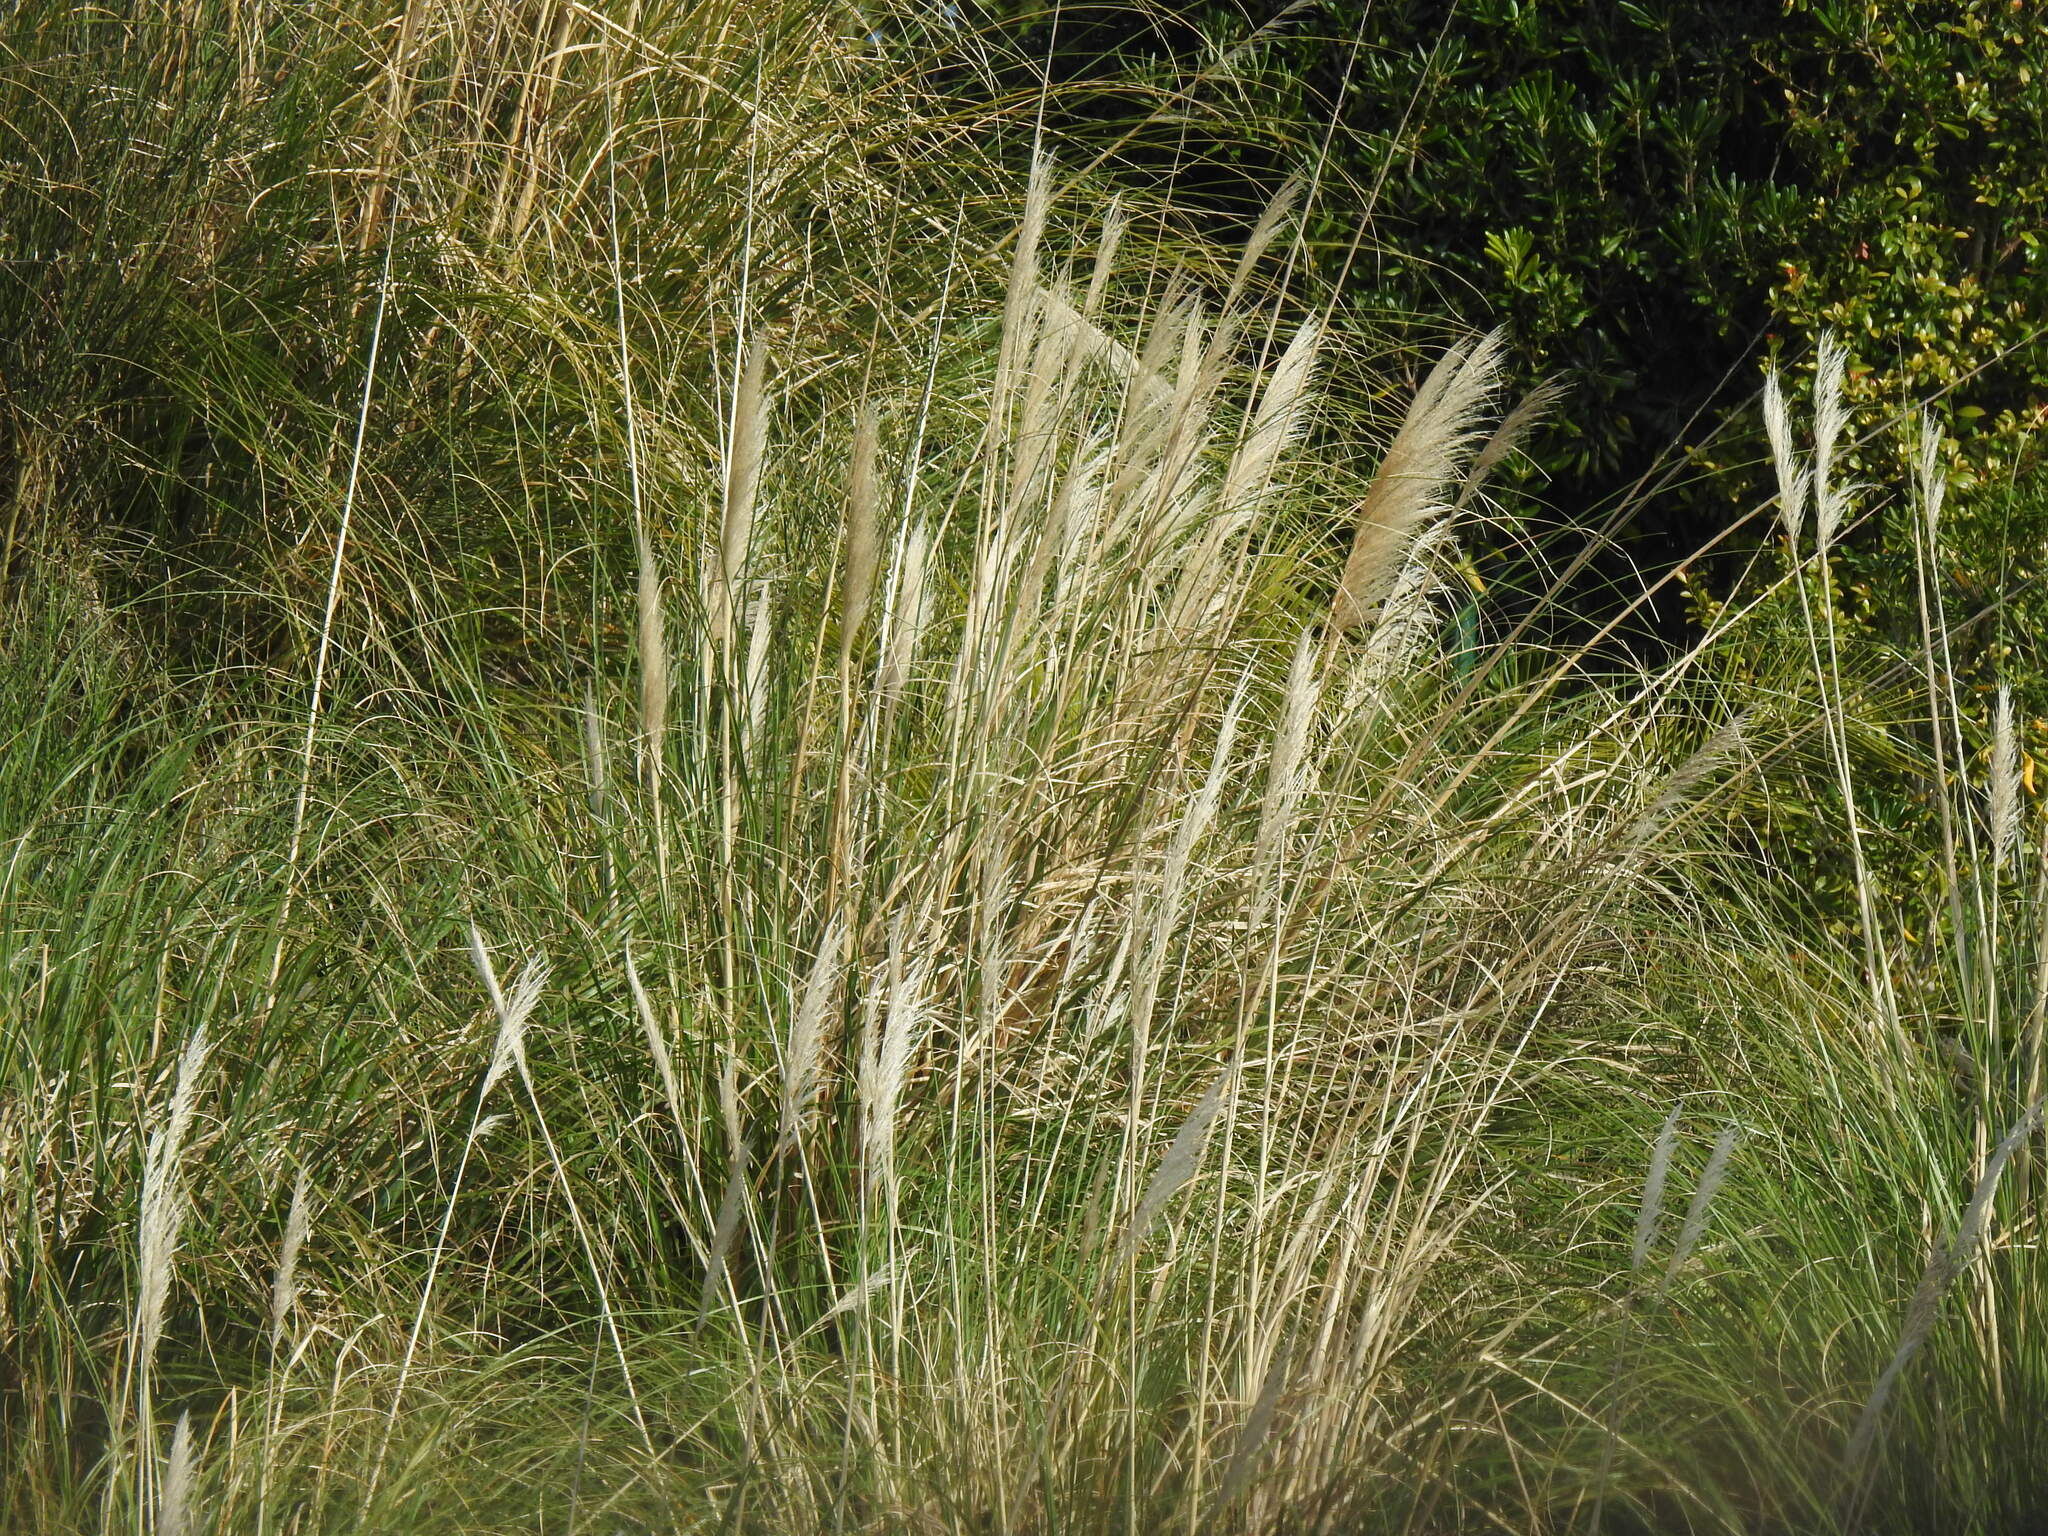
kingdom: Plantae
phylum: Tracheophyta
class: Liliopsida
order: Poales
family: Poaceae
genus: Cortaderia
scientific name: Cortaderia selloana
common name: Uruguayan pampas grass
